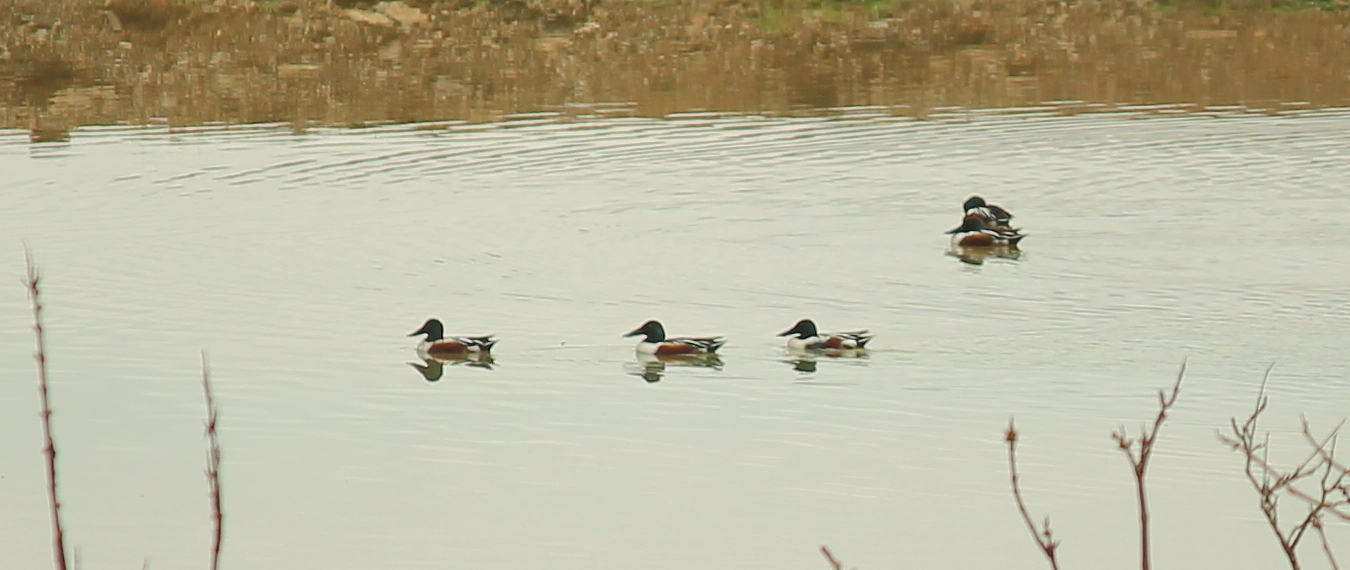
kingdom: Animalia
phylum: Chordata
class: Aves
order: Anseriformes
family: Anatidae
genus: Spatula
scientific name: Spatula clypeata
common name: Northern shoveler
